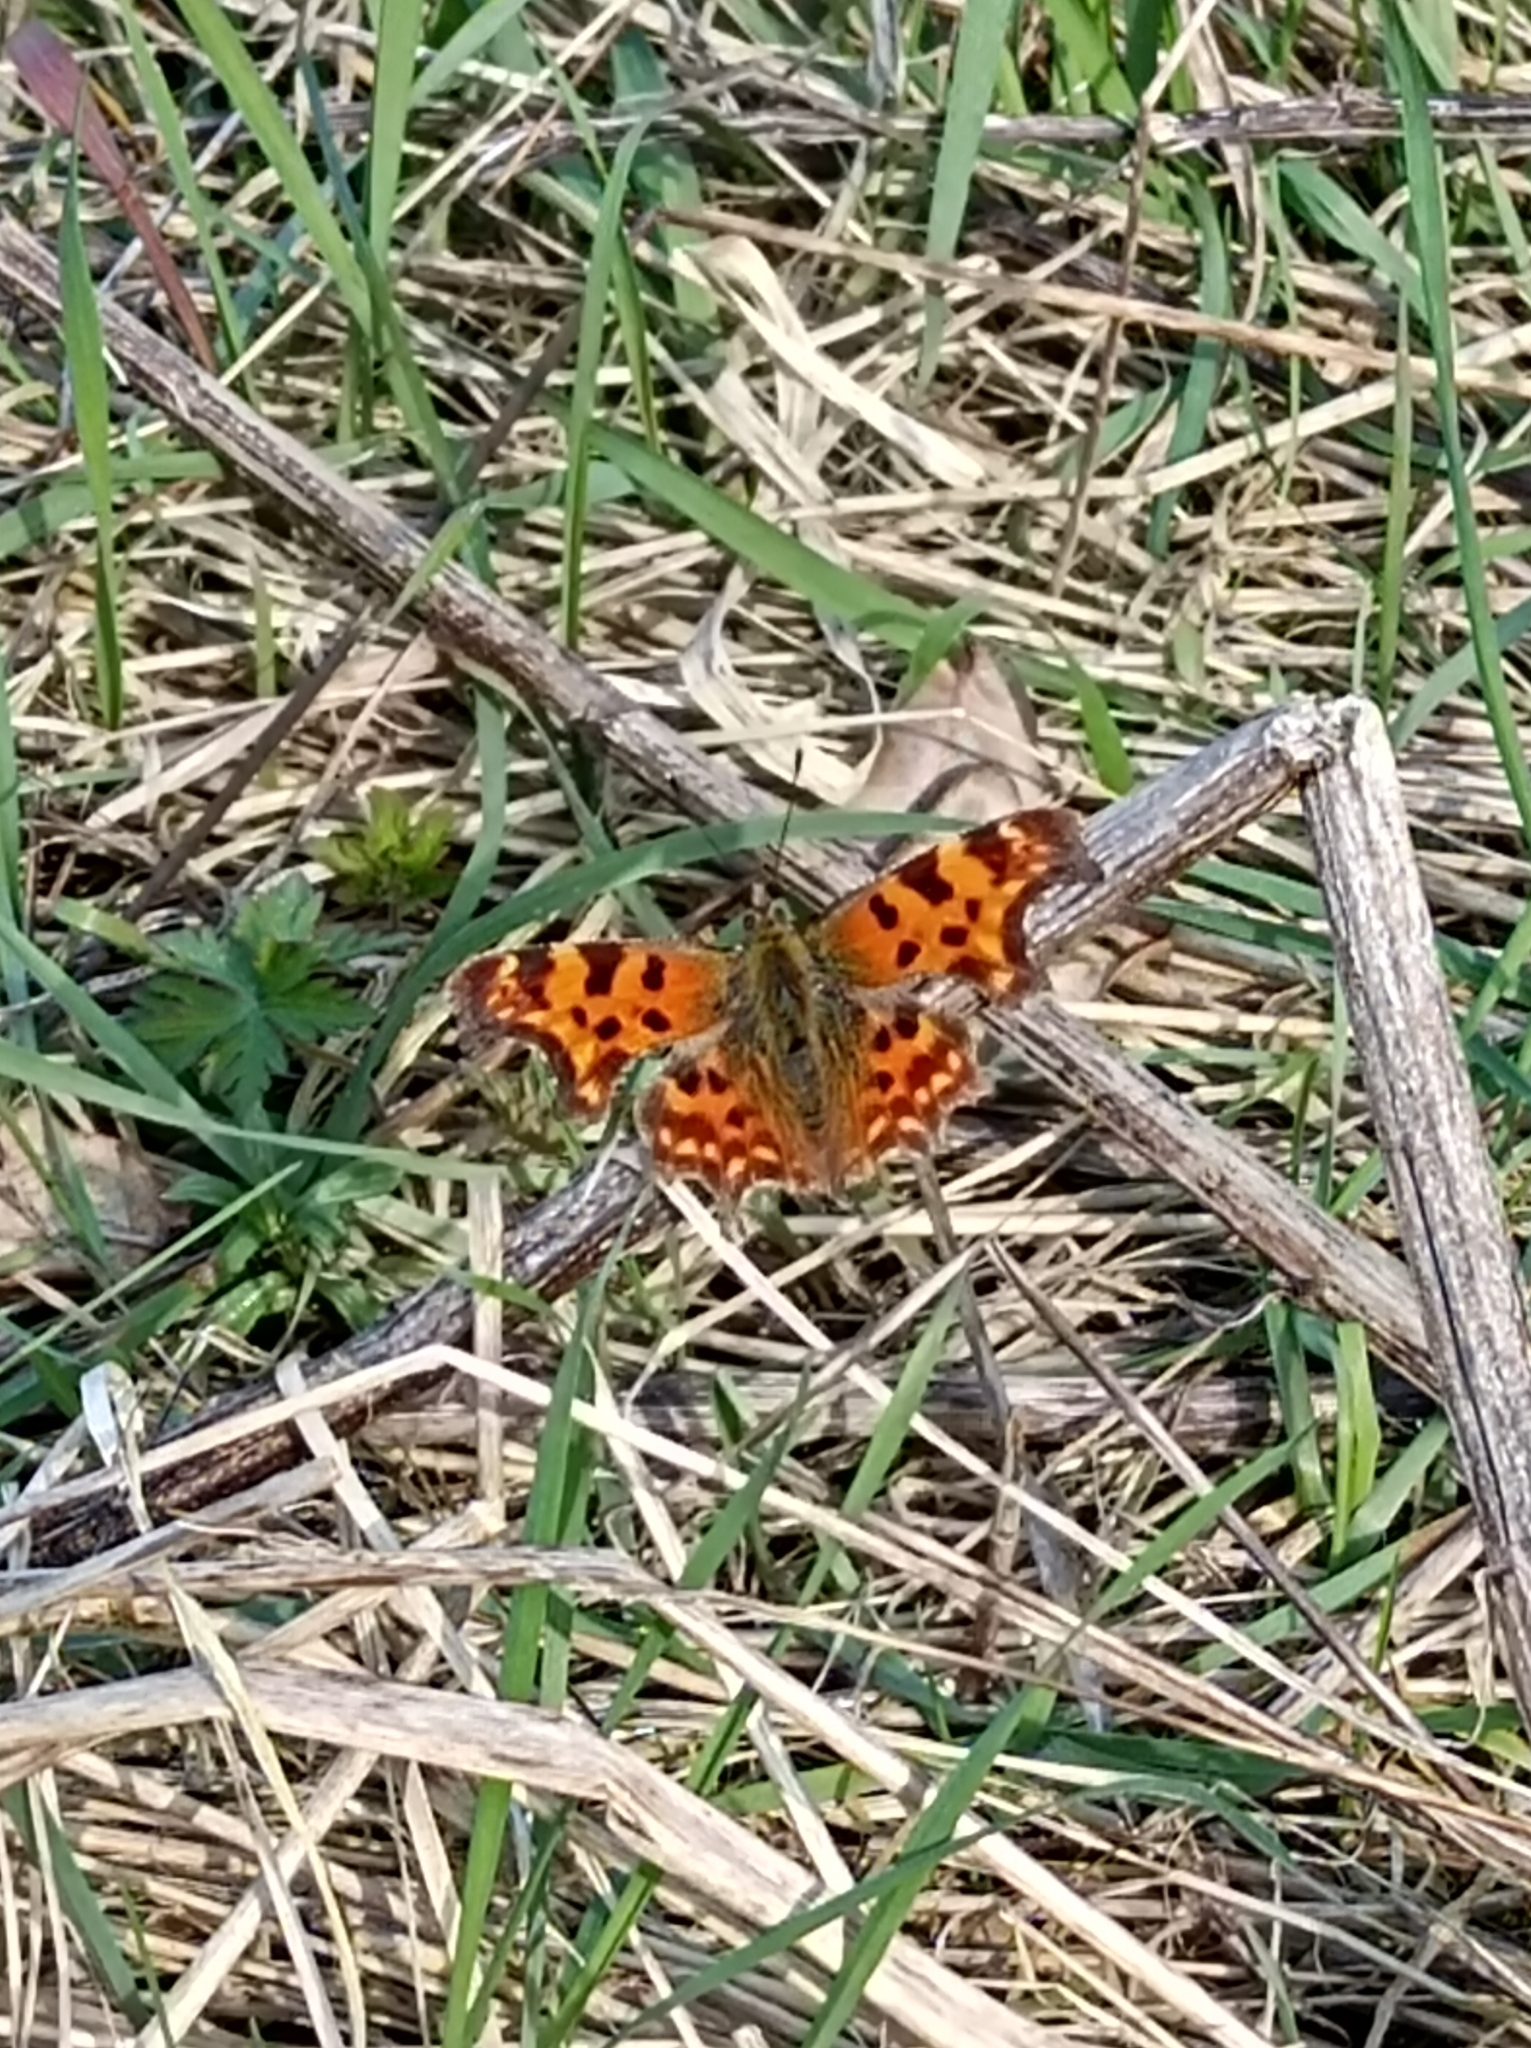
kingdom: Animalia
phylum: Arthropoda
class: Insecta
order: Lepidoptera
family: Nymphalidae
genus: Polygonia
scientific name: Polygonia c-album
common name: Comma
